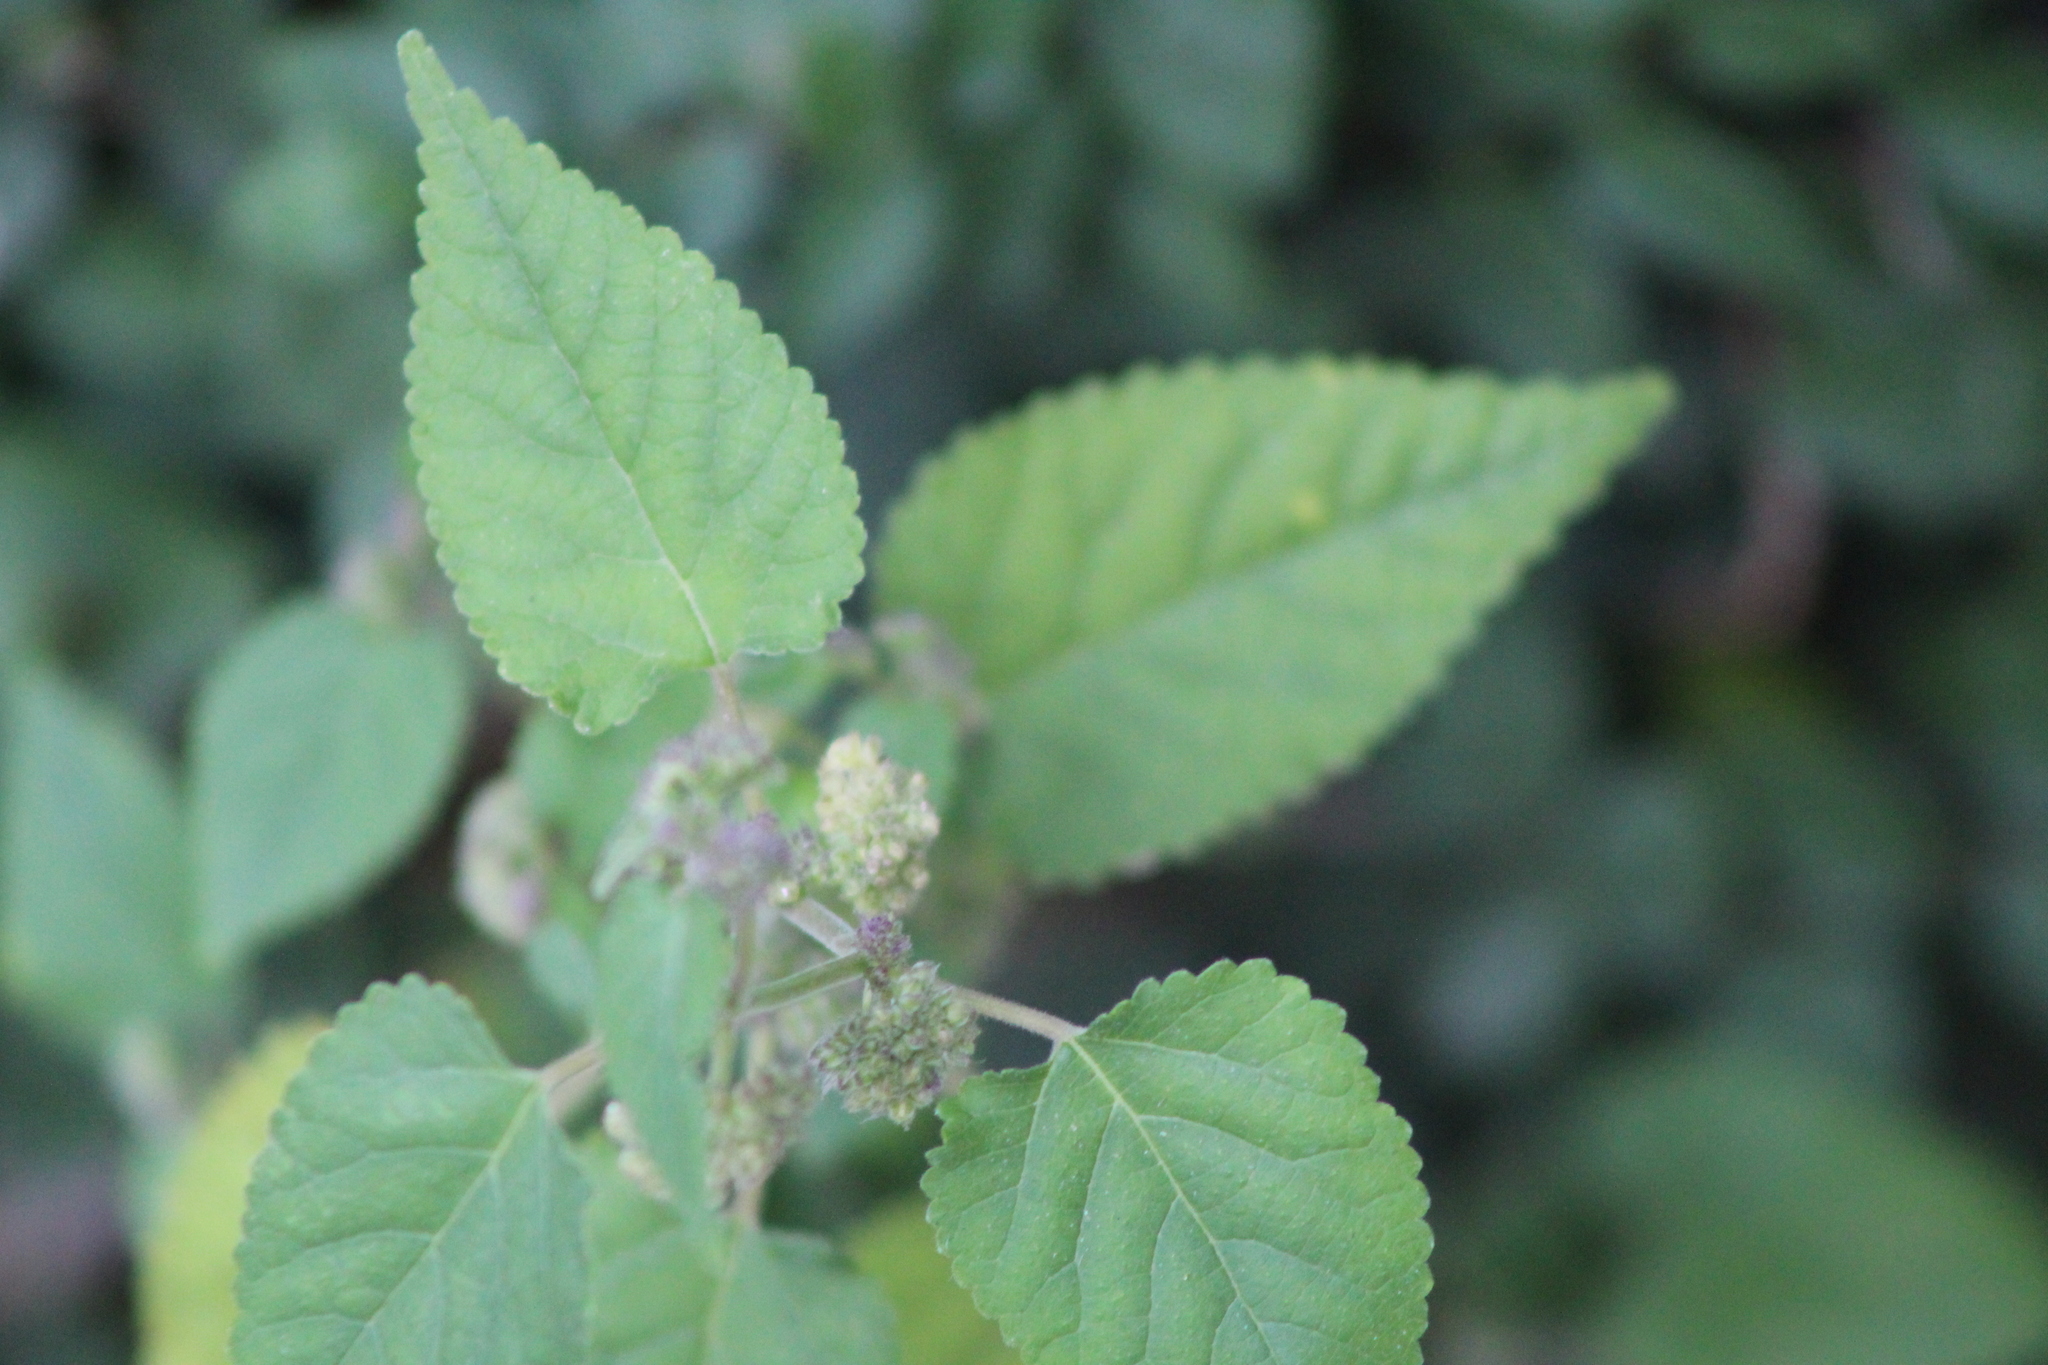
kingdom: Plantae
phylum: Tracheophyta
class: Magnoliopsida
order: Rosales
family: Moraceae
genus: Fatoua
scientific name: Fatoua villosa
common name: Hairy crabweed
